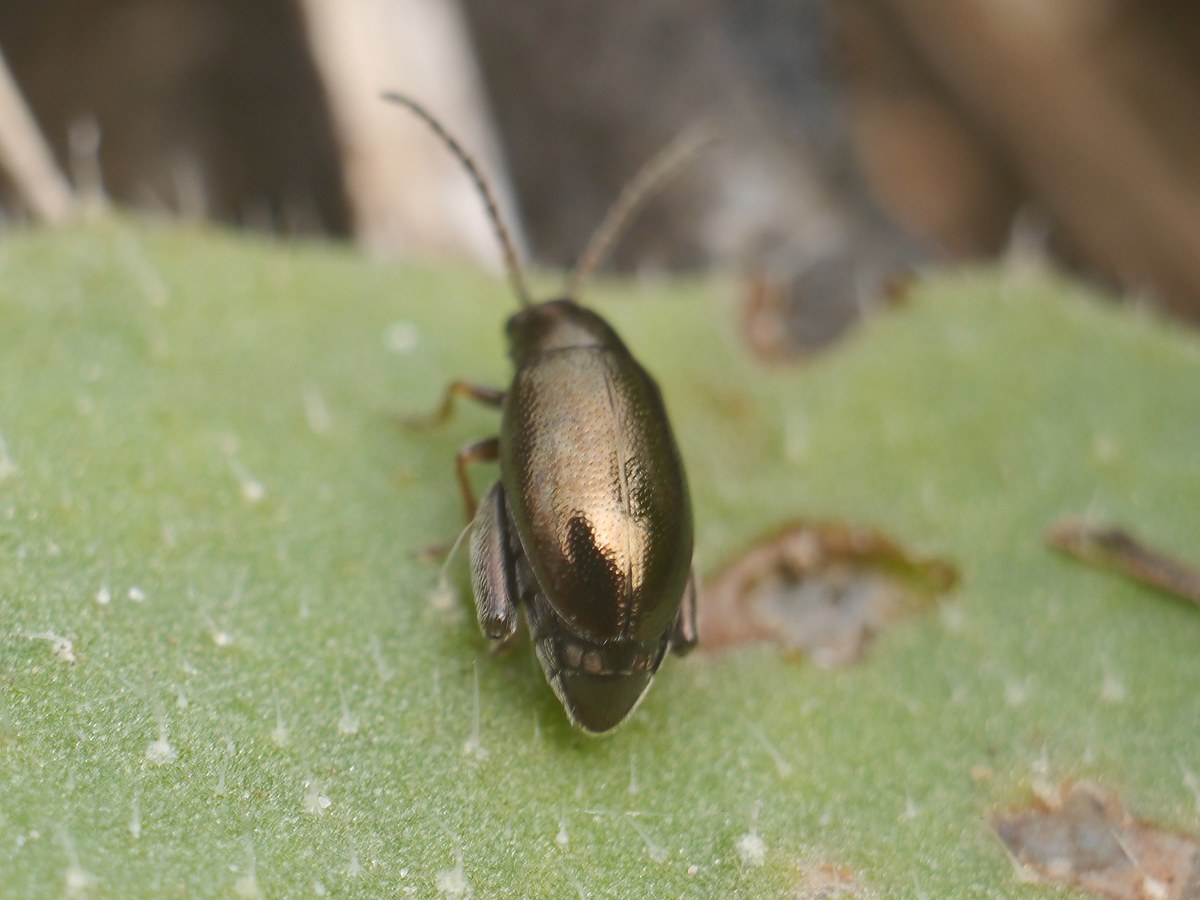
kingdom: Animalia
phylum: Arthropoda
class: Insecta
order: Coleoptera
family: Chrysomelidae
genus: Longitarsus
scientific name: Longitarsus echii
